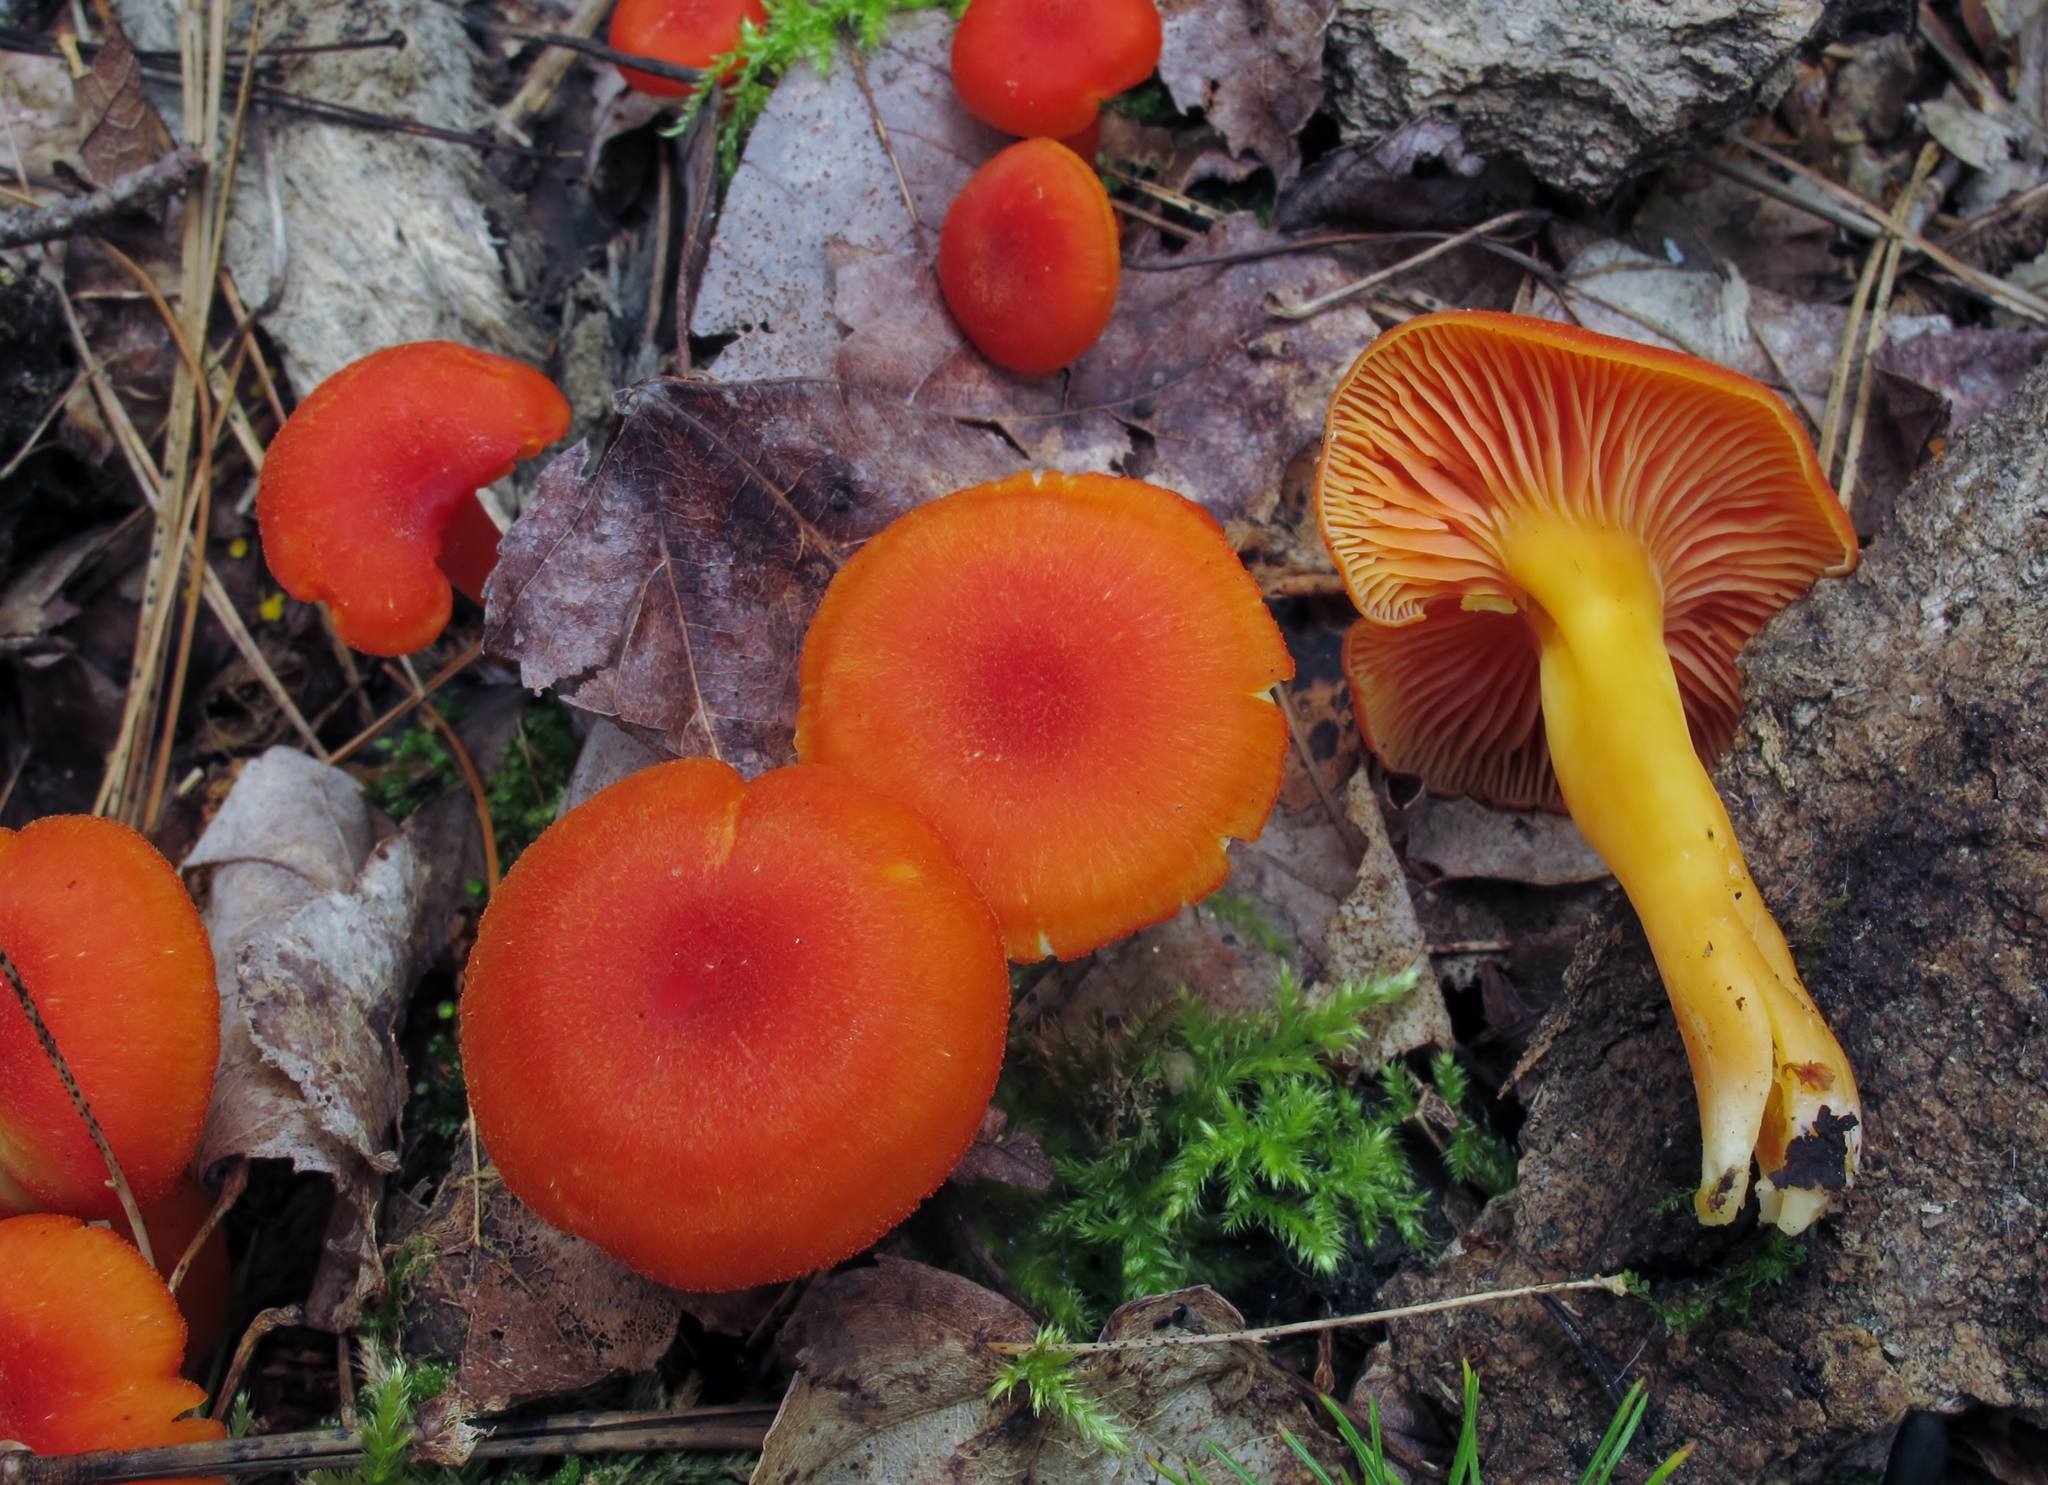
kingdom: Fungi
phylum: Basidiomycota
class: Agaricomycetes
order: Agaricales
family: Hygrophoraceae
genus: Hygrocybe
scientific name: Hygrocybe miniata
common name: Vermilion waxcap
